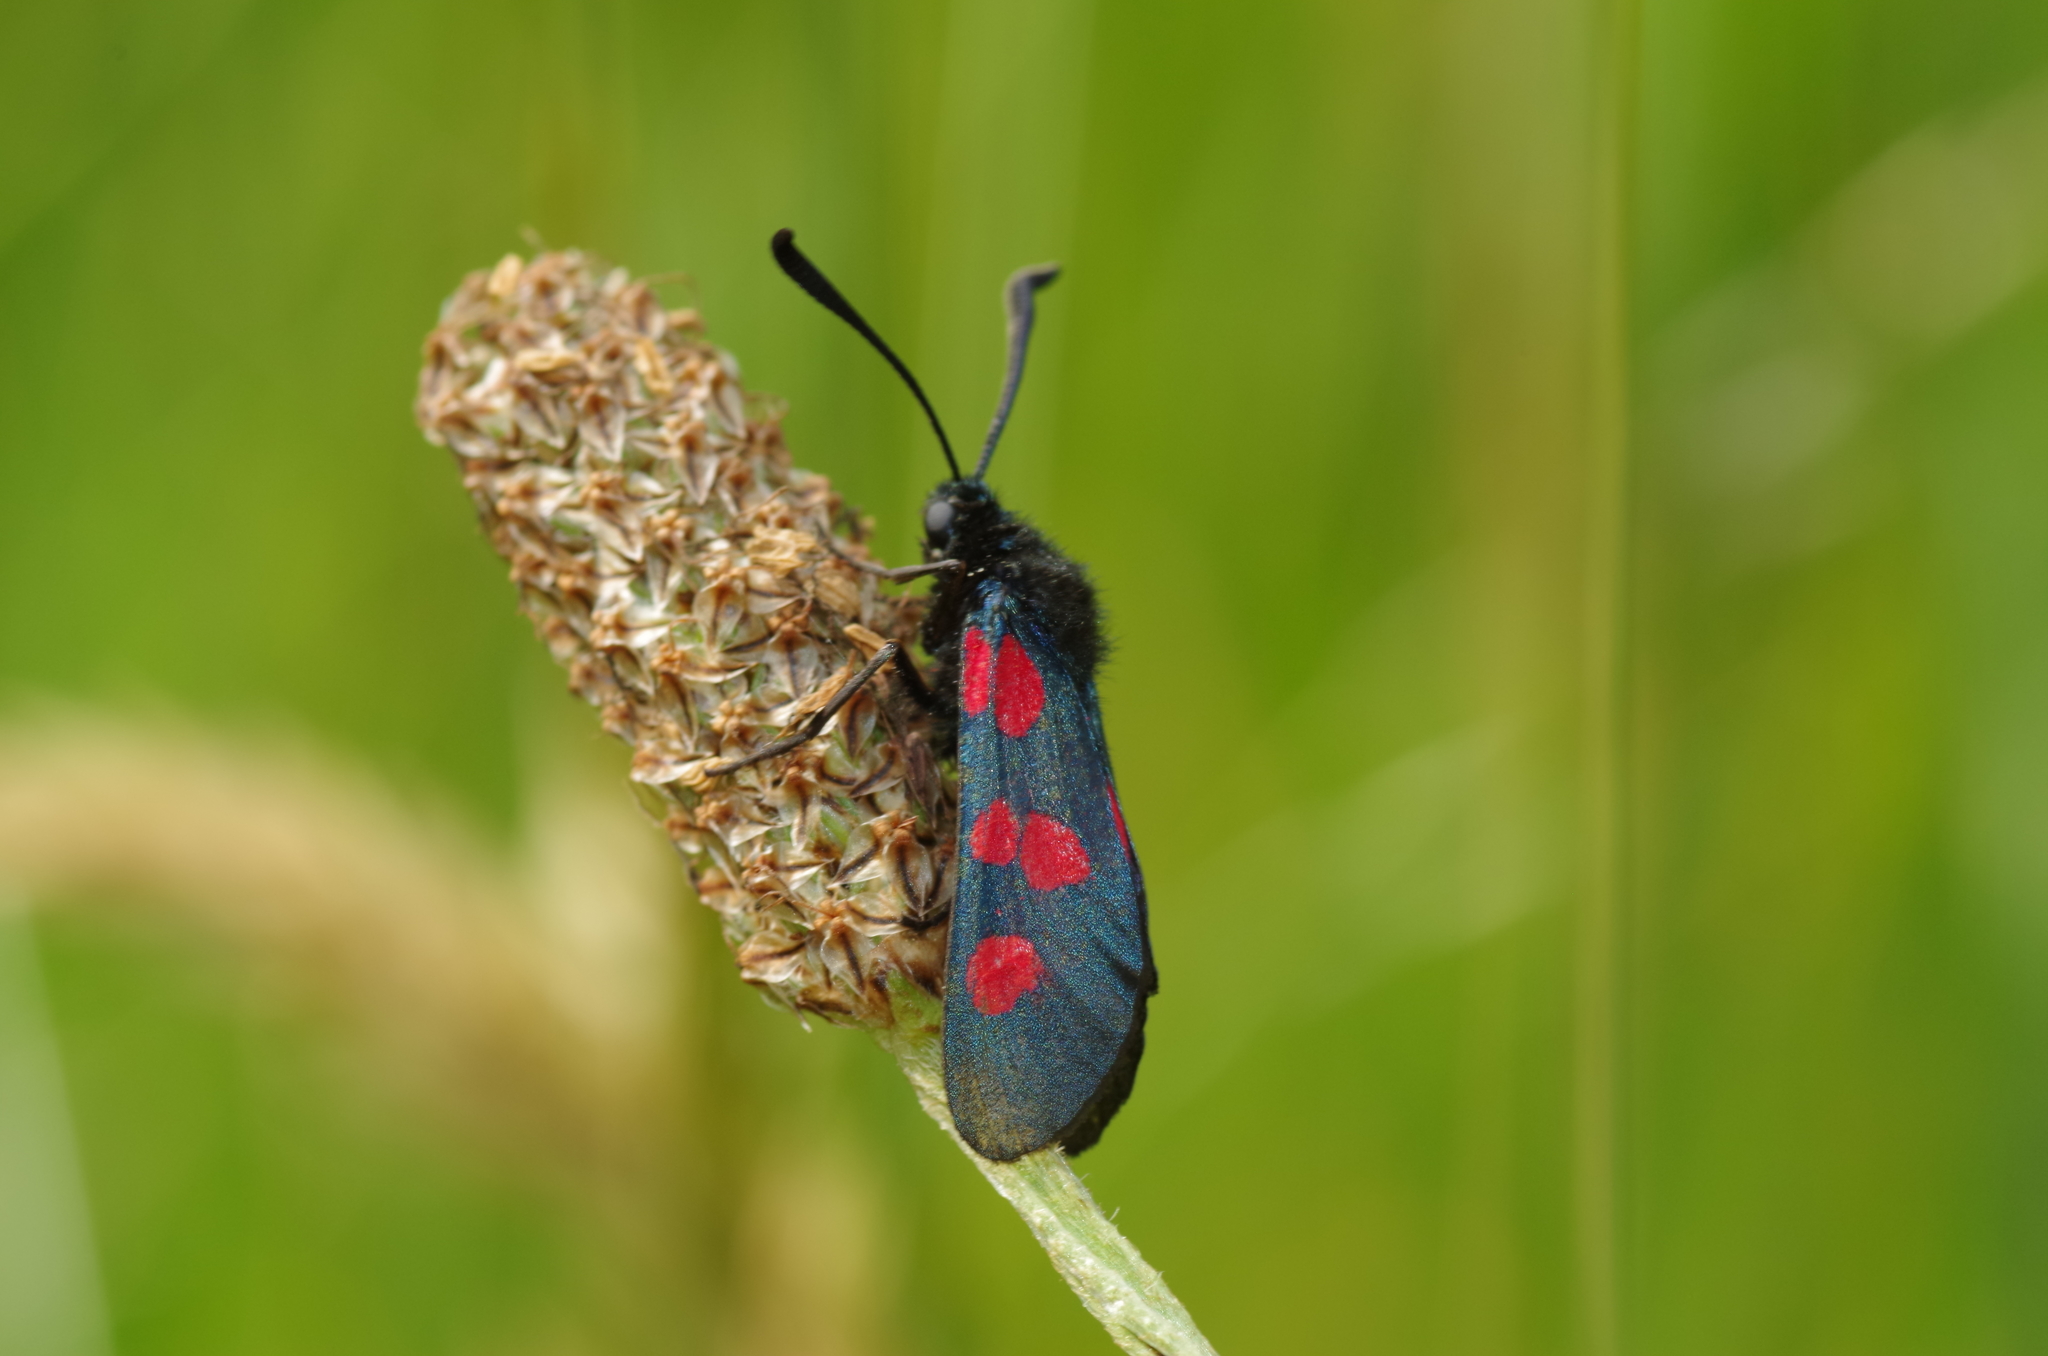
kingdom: Animalia
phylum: Arthropoda
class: Insecta
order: Lepidoptera
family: Zygaenidae
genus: Zygaena
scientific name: Zygaena trifolii
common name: Five-spot burnet
